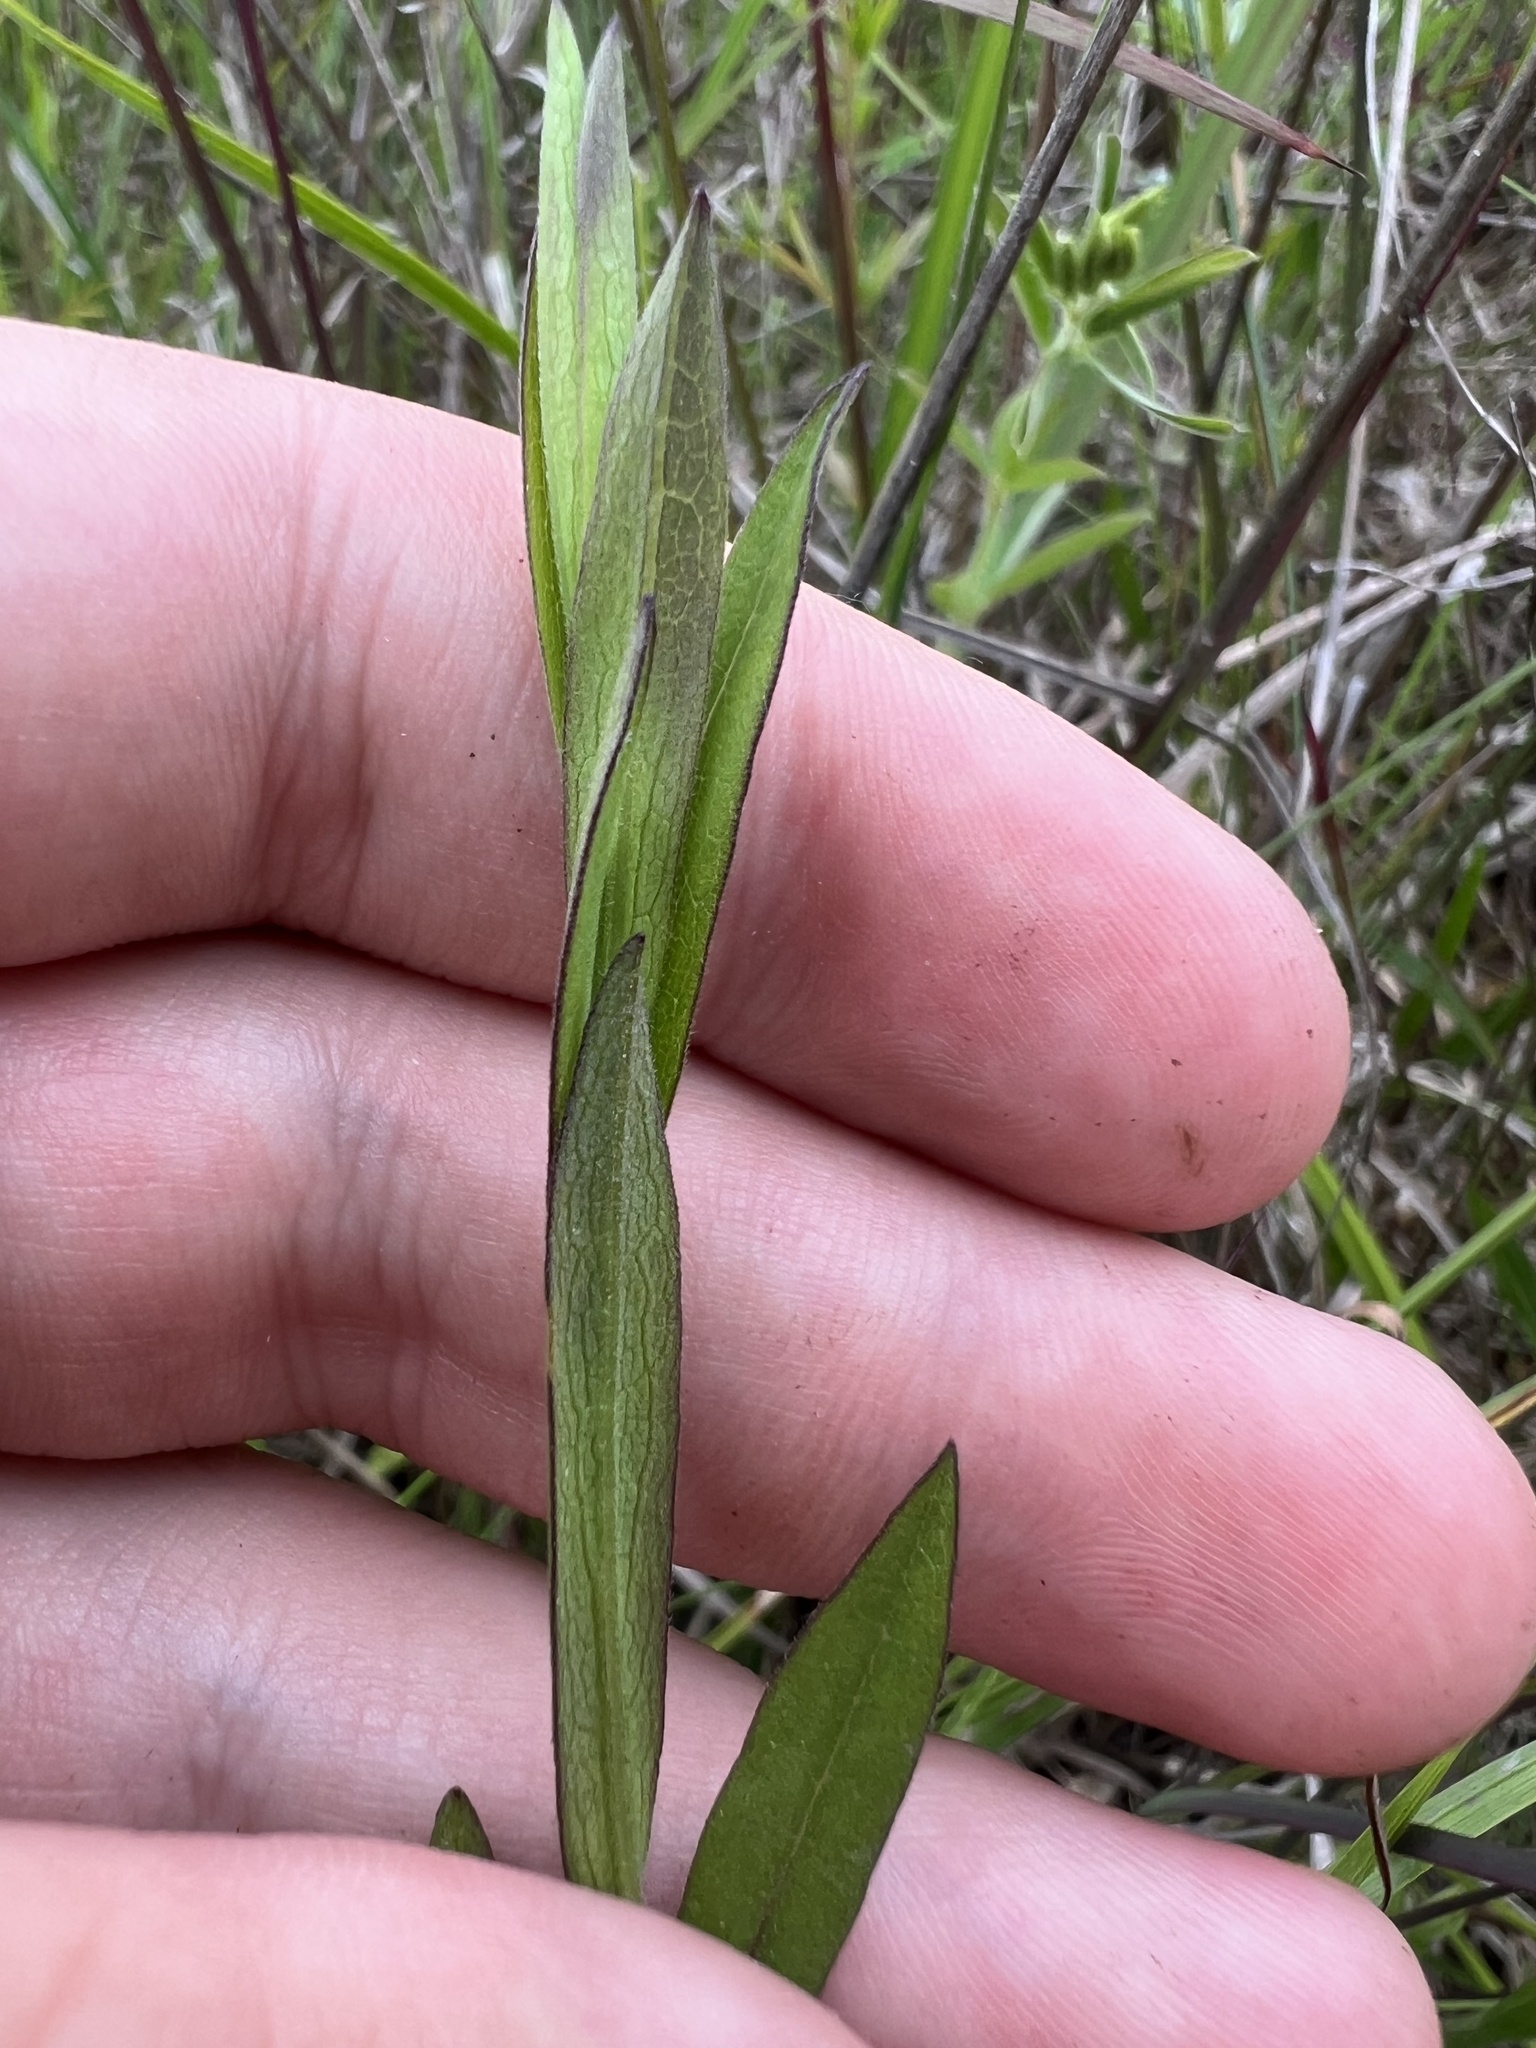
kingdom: Plantae
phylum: Tracheophyta
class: Magnoliopsida
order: Asterales
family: Asteraceae
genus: Symphyotrichum
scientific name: Symphyotrichum estesii
